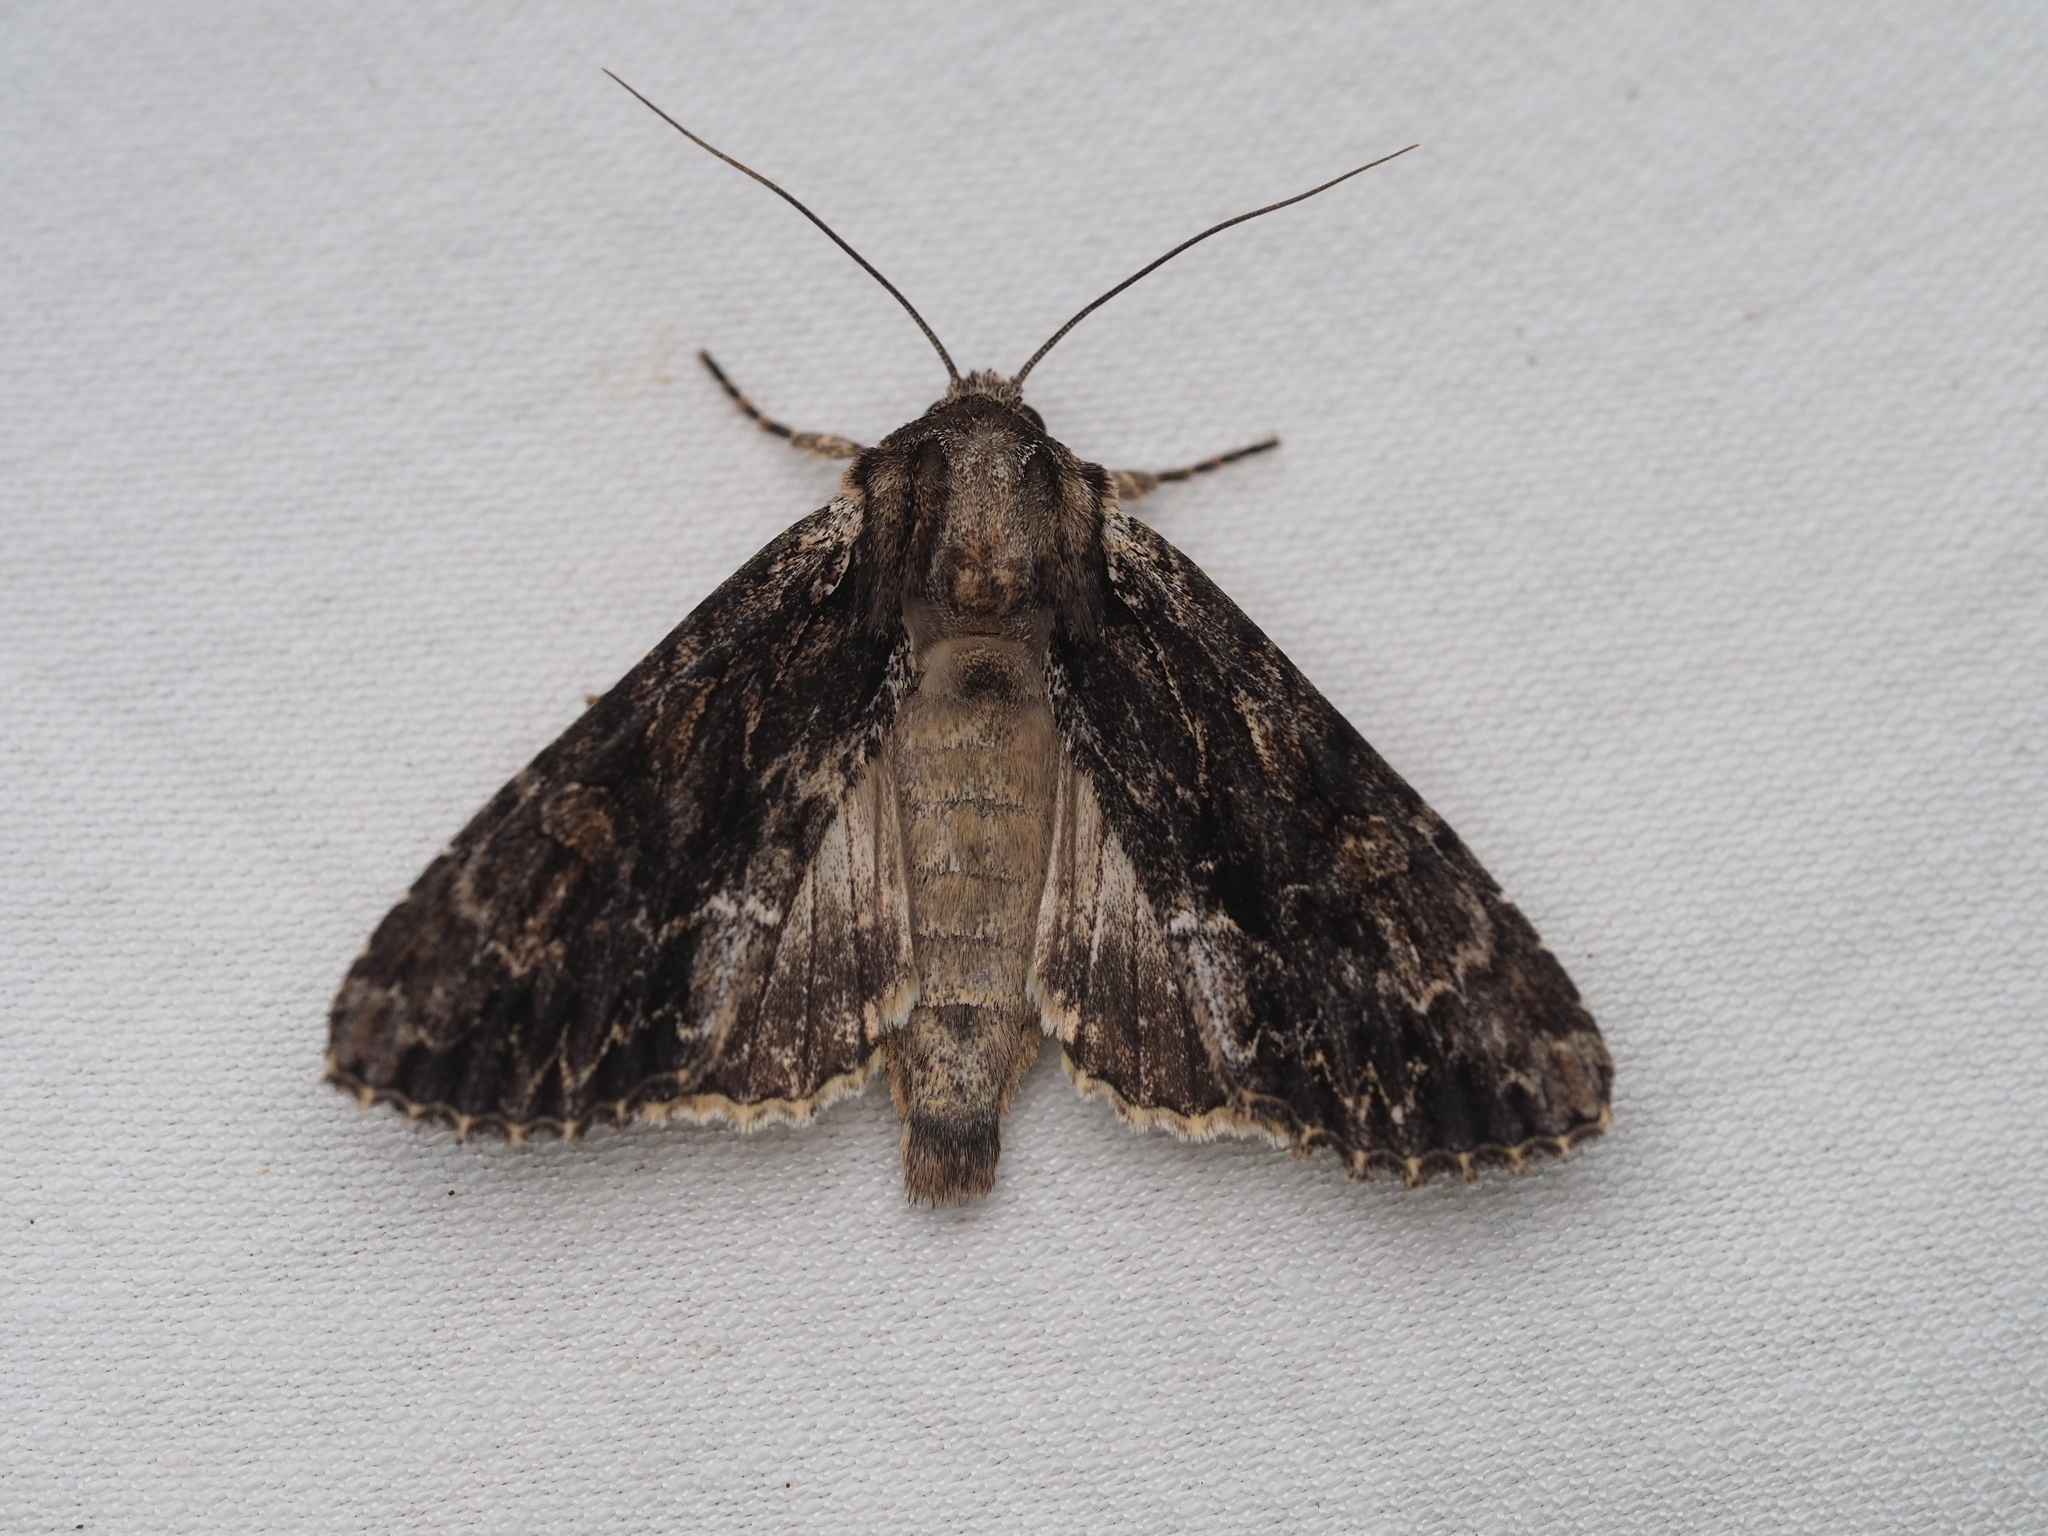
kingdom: Animalia
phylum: Arthropoda
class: Insecta
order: Lepidoptera
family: Noctuidae
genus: Apamea
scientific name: Apamea monoglypha
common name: Dark arches
